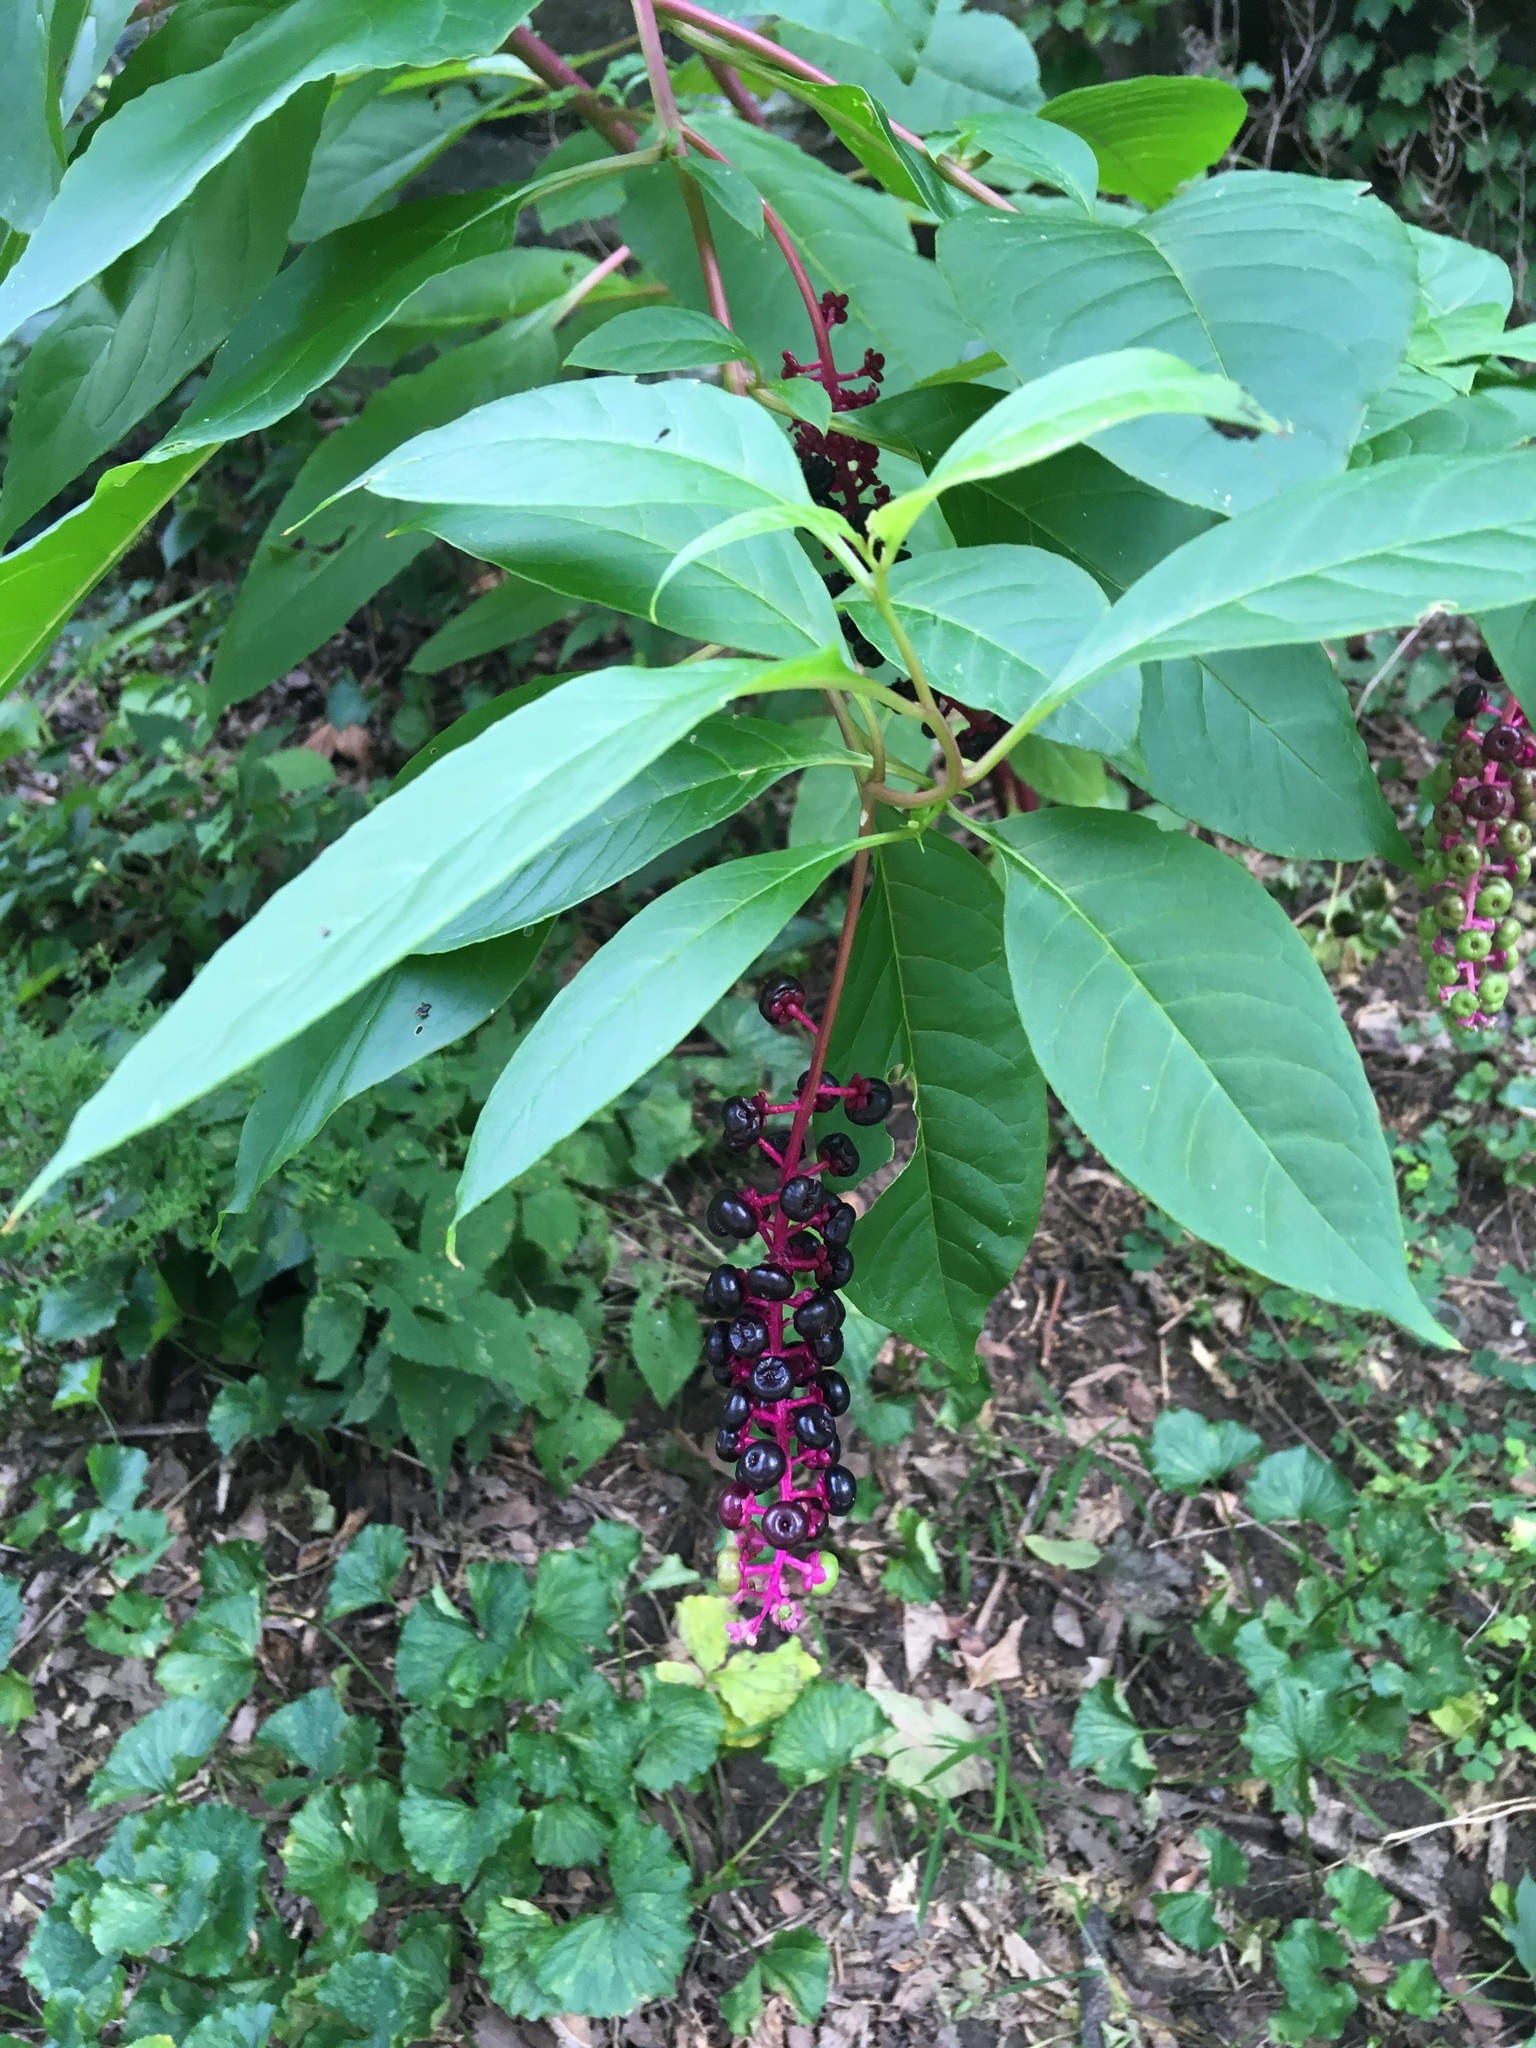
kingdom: Plantae
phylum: Tracheophyta
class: Magnoliopsida
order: Caryophyllales
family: Phytolaccaceae
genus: Phytolacca
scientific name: Phytolacca americana
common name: American pokeweed
